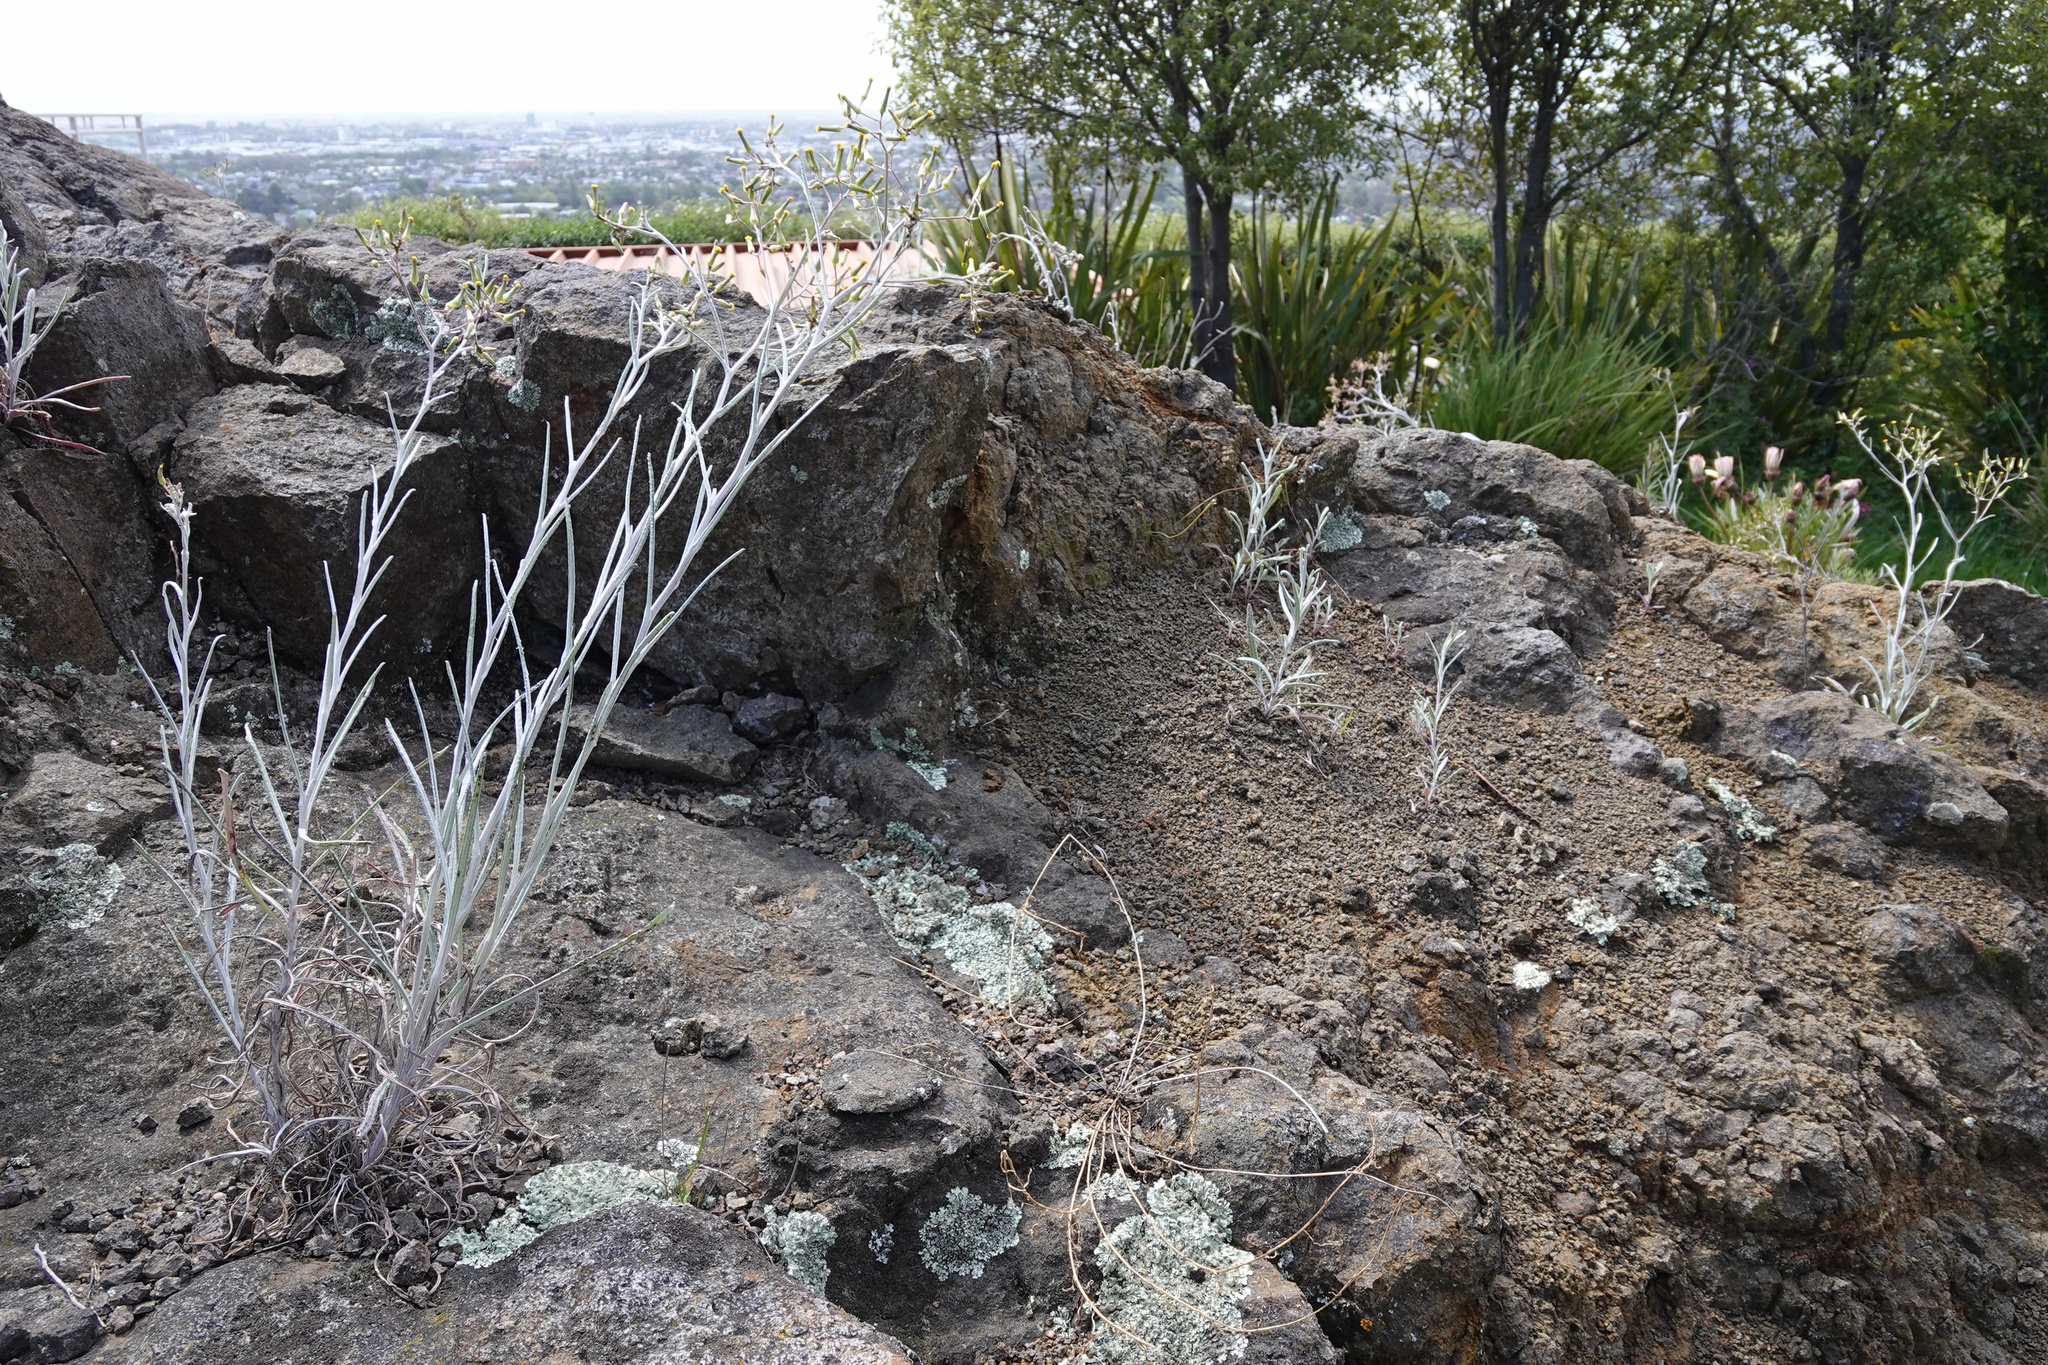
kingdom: Plantae
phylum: Tracheophyta
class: Magnoliopsida
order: Asterales
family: Asteraceae
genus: Senecio
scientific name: Senecio quadridentatus
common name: Cotton fireweed
